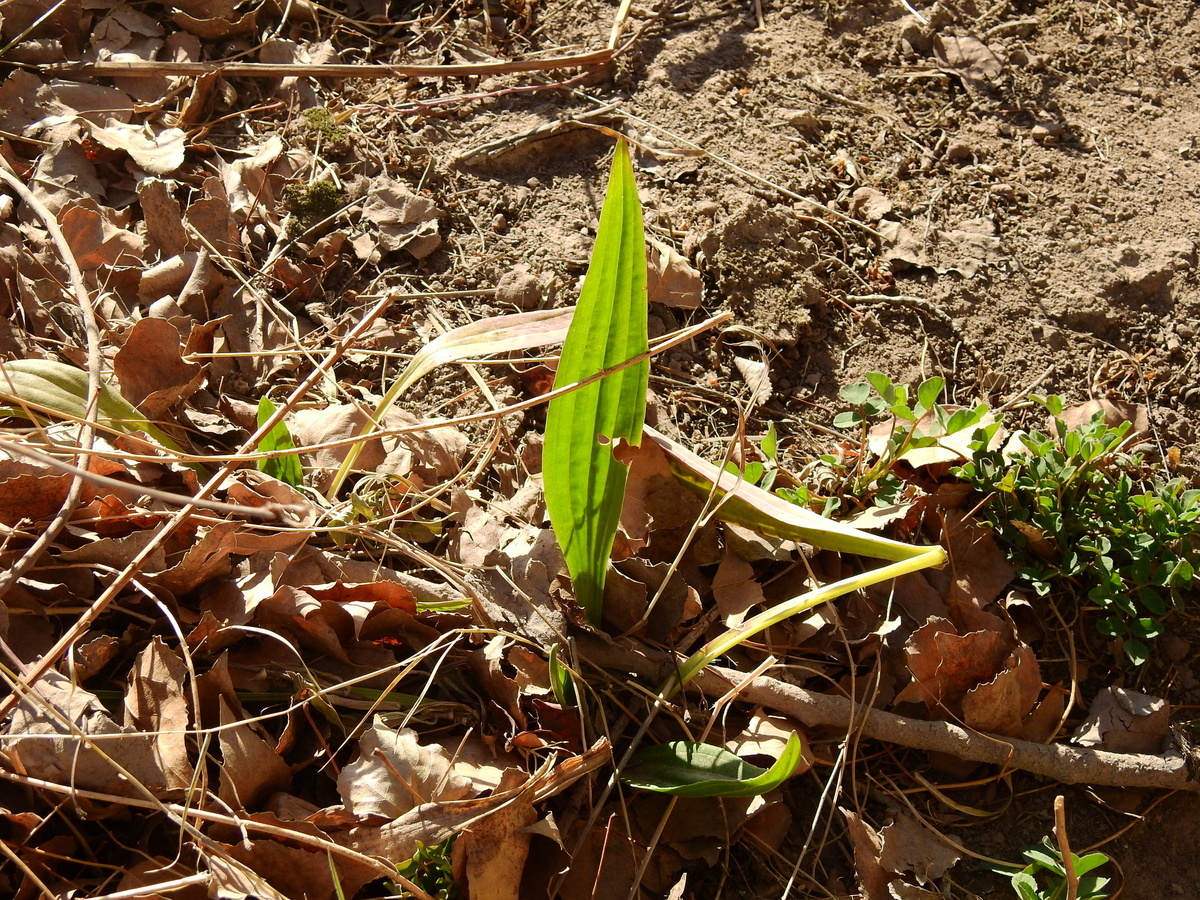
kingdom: Plantae
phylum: Tracheophyta
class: Magnoliopsida
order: Lamiales
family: Plantaginaceae
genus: Plantago
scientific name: Plantago lanceolata
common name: Ribwort plantain
